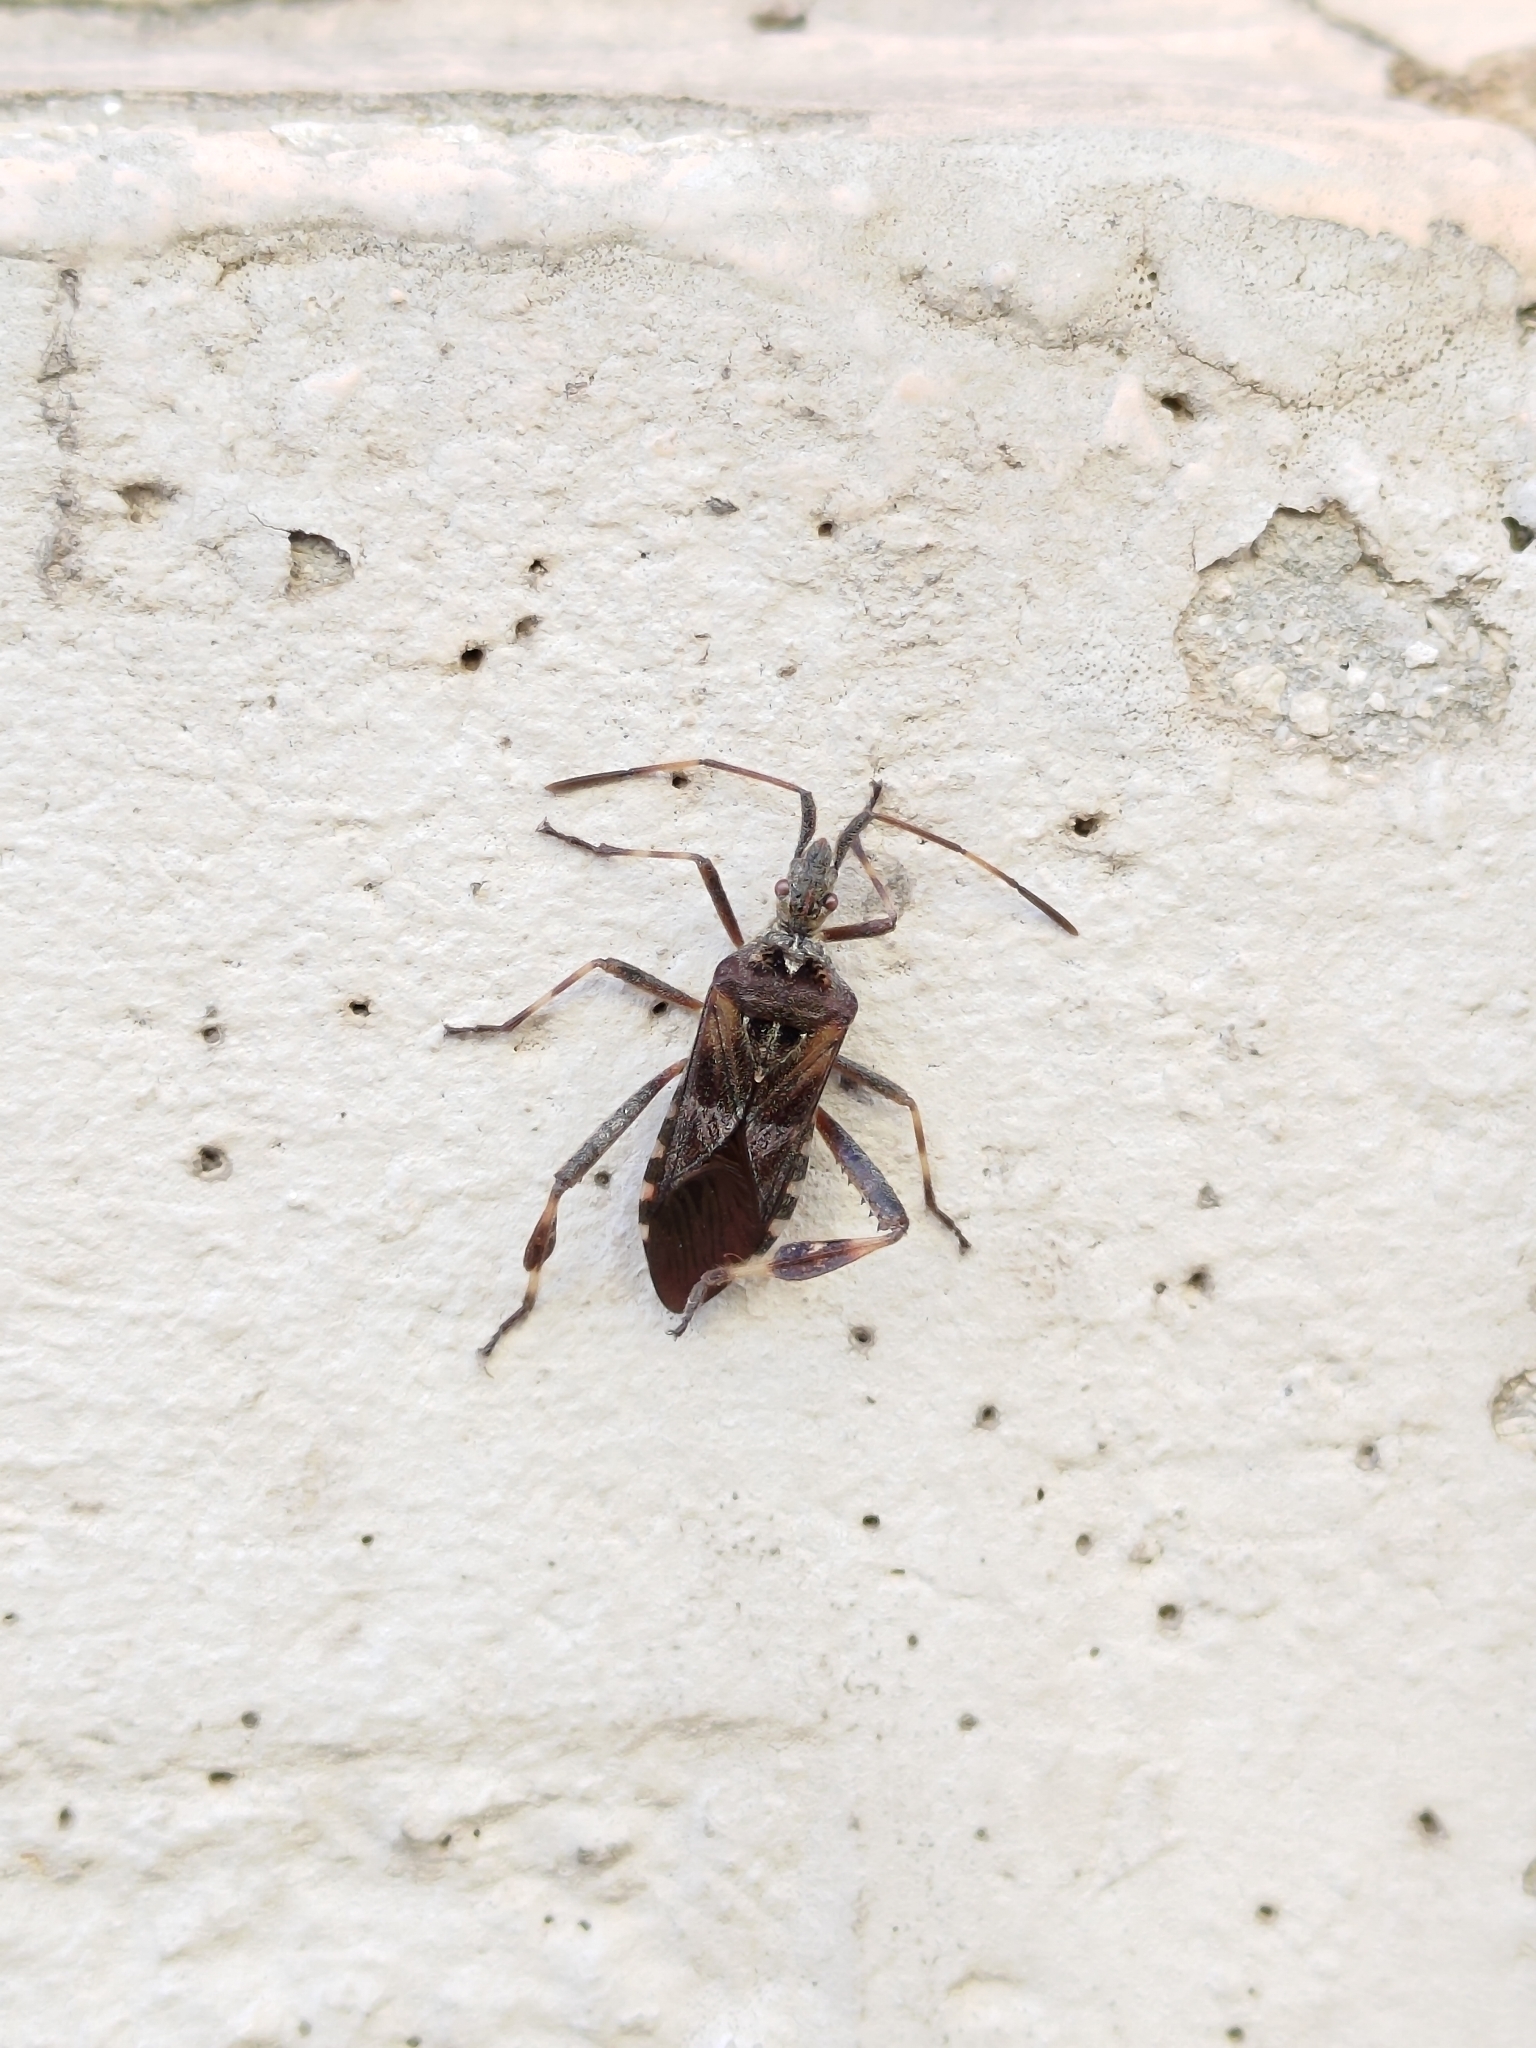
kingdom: Animalia
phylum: Arthropoda
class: Insecta
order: Hemiptera
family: Coreidae
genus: Leptoglossus
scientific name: Leptoglossus occidentalis
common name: Western conifer-seed bug
